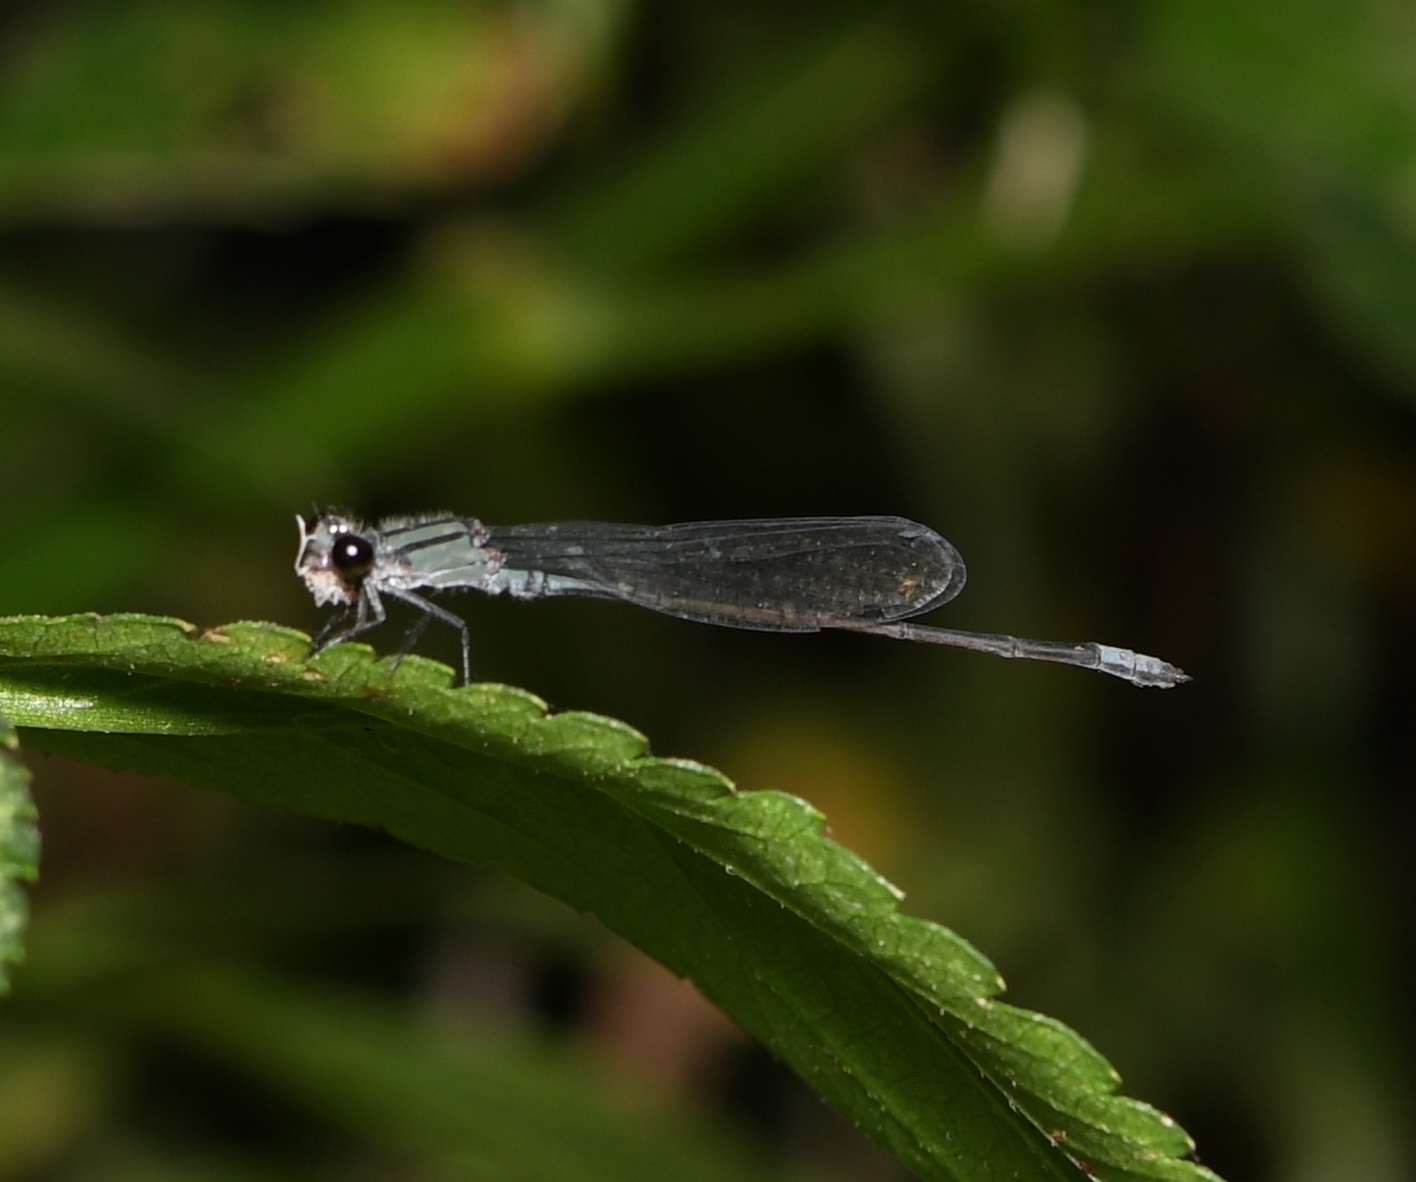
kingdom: Animalia
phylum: Arthropoda
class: Insecta
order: Odonata
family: Coenagrionidae
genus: Enallagma
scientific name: Enallagma cardenium
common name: Purple bluet
